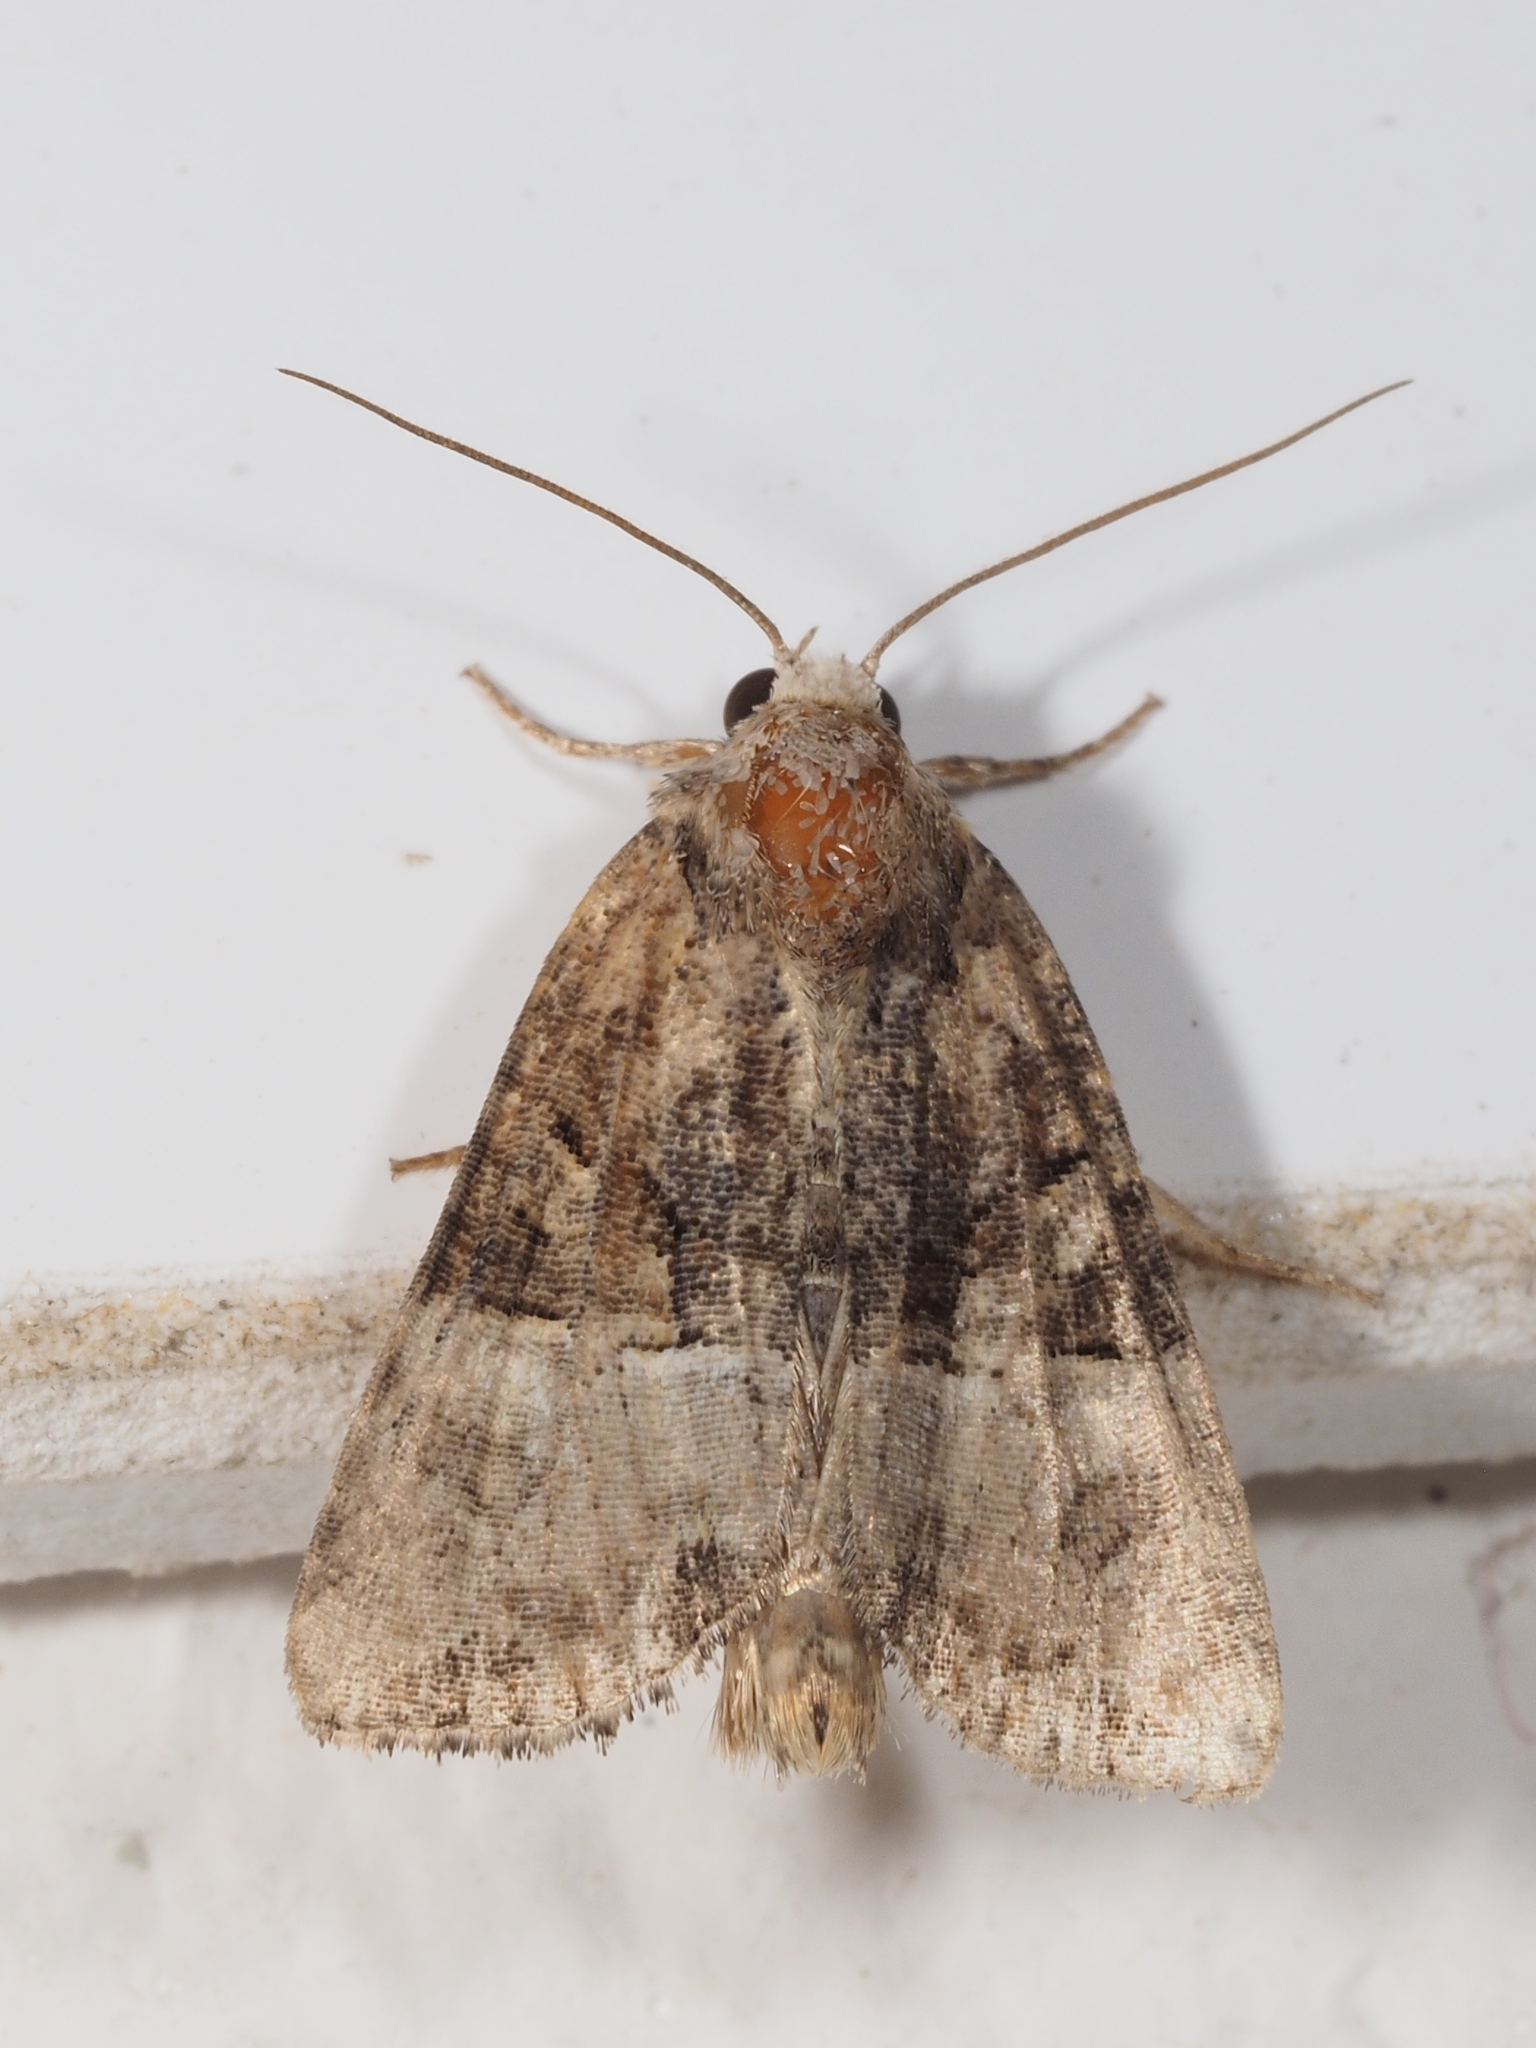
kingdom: Animalia
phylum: Arthropoda
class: Insecta
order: Lepidoptera
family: Noctuidae
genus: Mesoligia
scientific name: Mesoligia furuncula
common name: Cloaked minor
